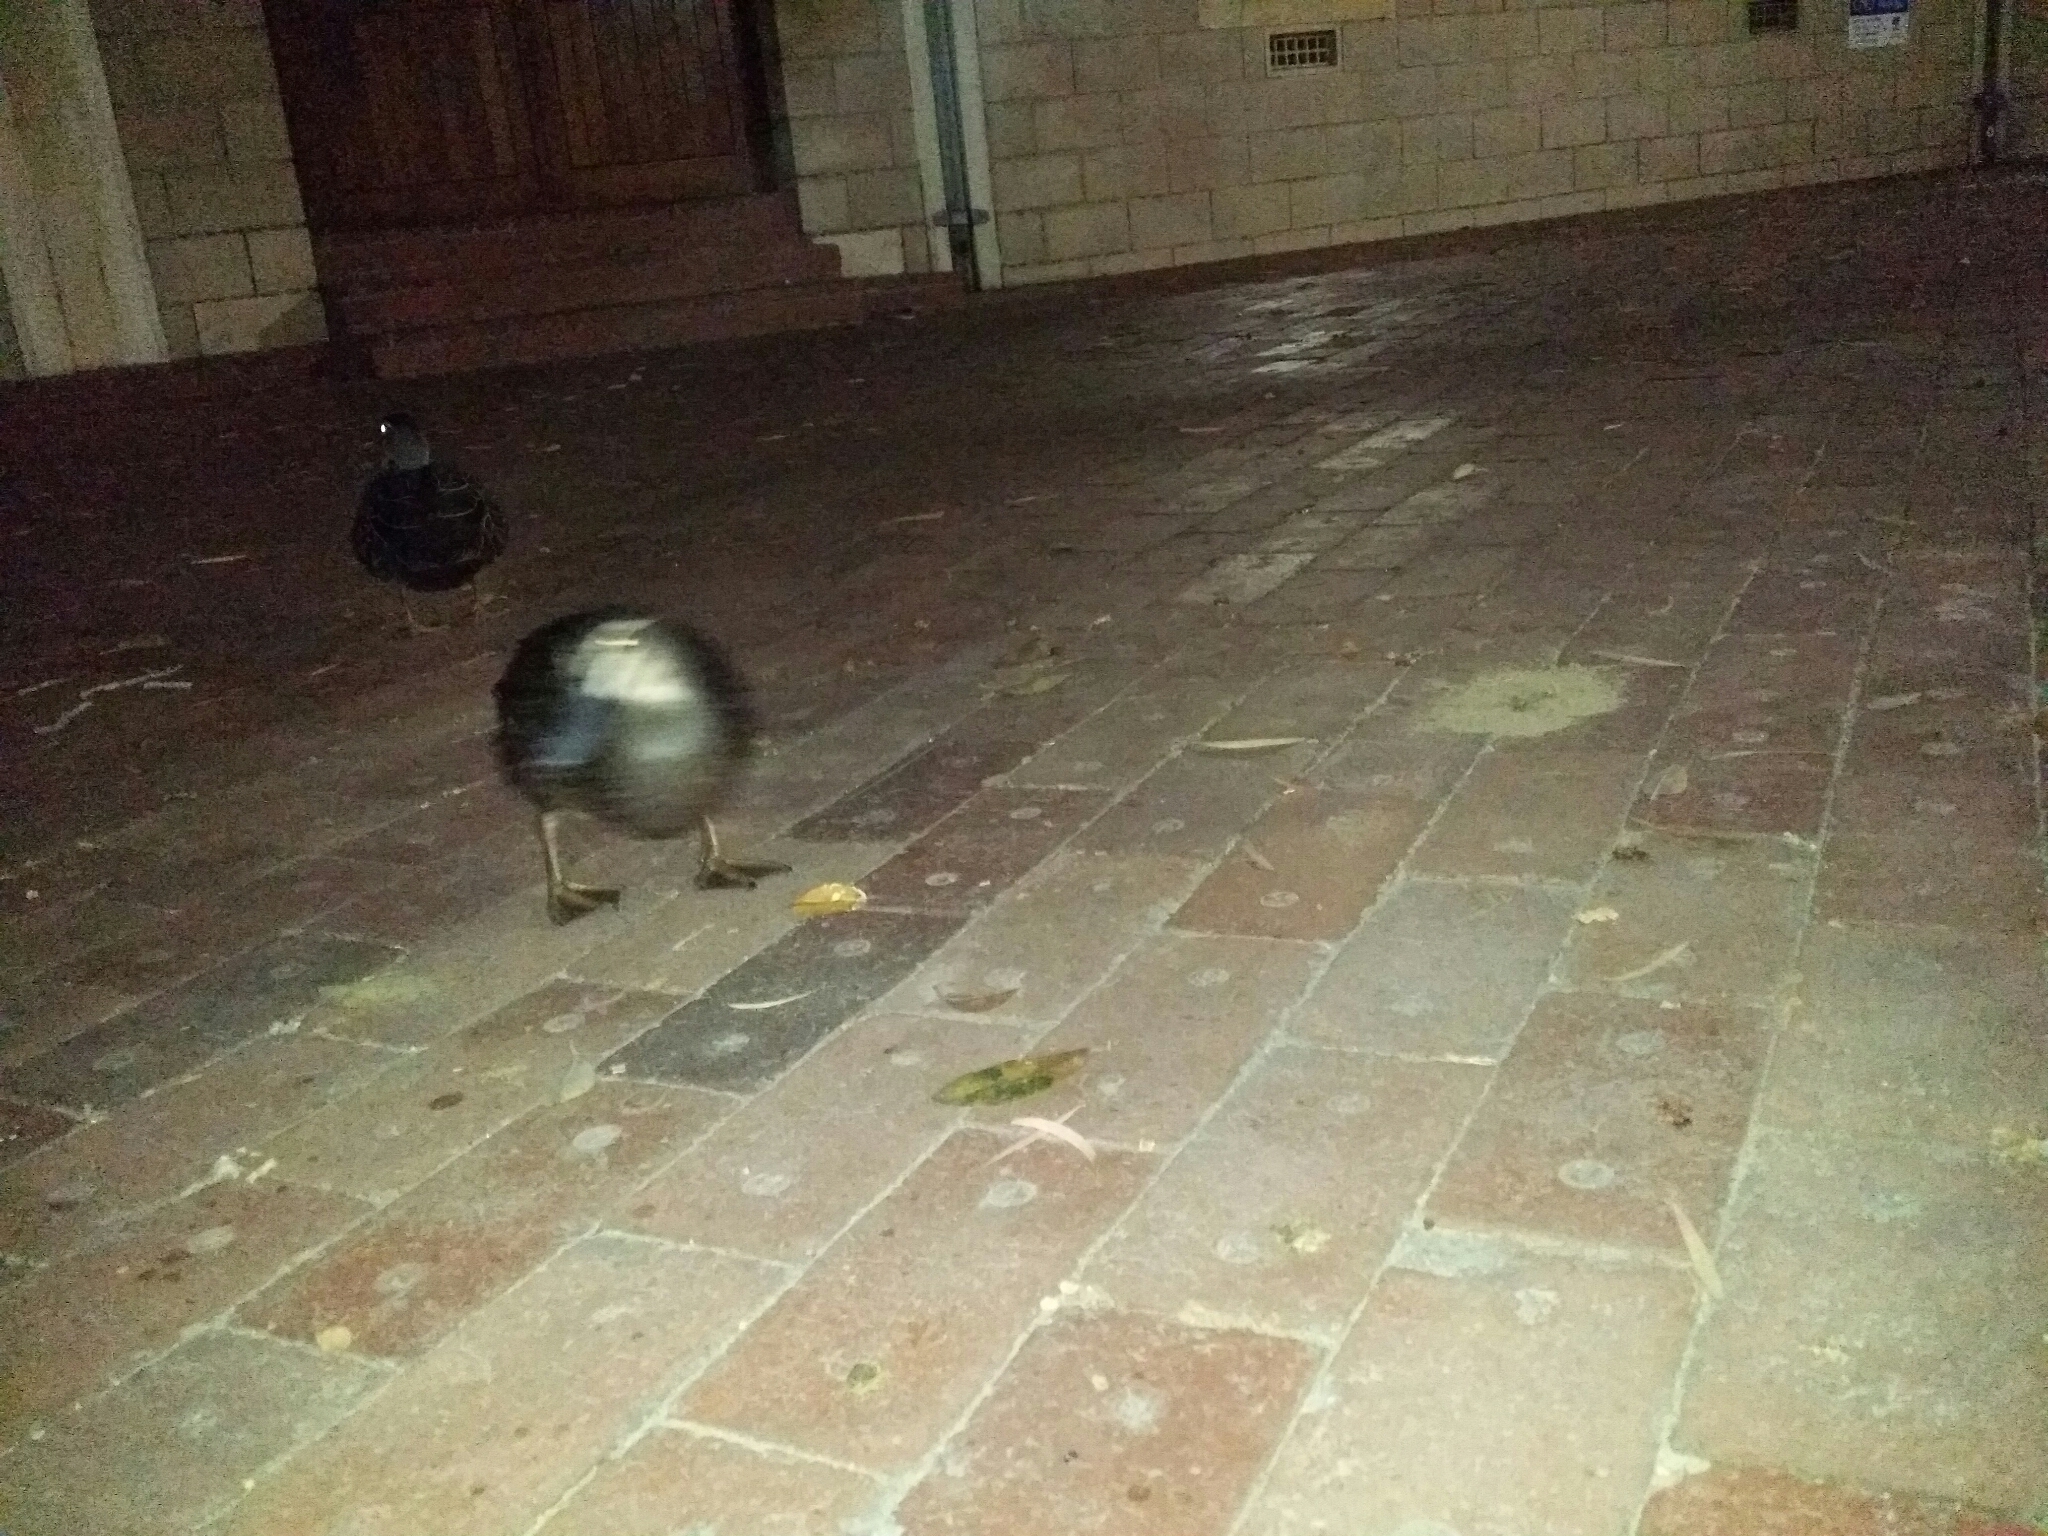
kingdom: Animalia
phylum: Chordata
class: Aves
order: Anseriformes
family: Anatidae
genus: Anas
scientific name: Anas superciliosa
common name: Pacific black duck
